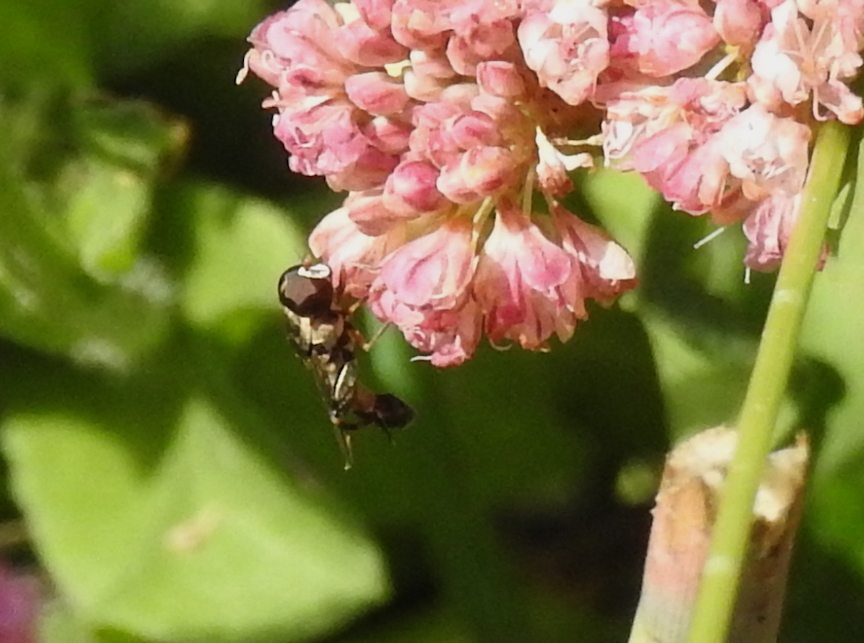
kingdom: Animalia
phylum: Arthropoda
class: Insecta
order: Diptera
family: Syrphidae
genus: Syritta
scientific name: Syritta pipiens
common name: Hover fly
